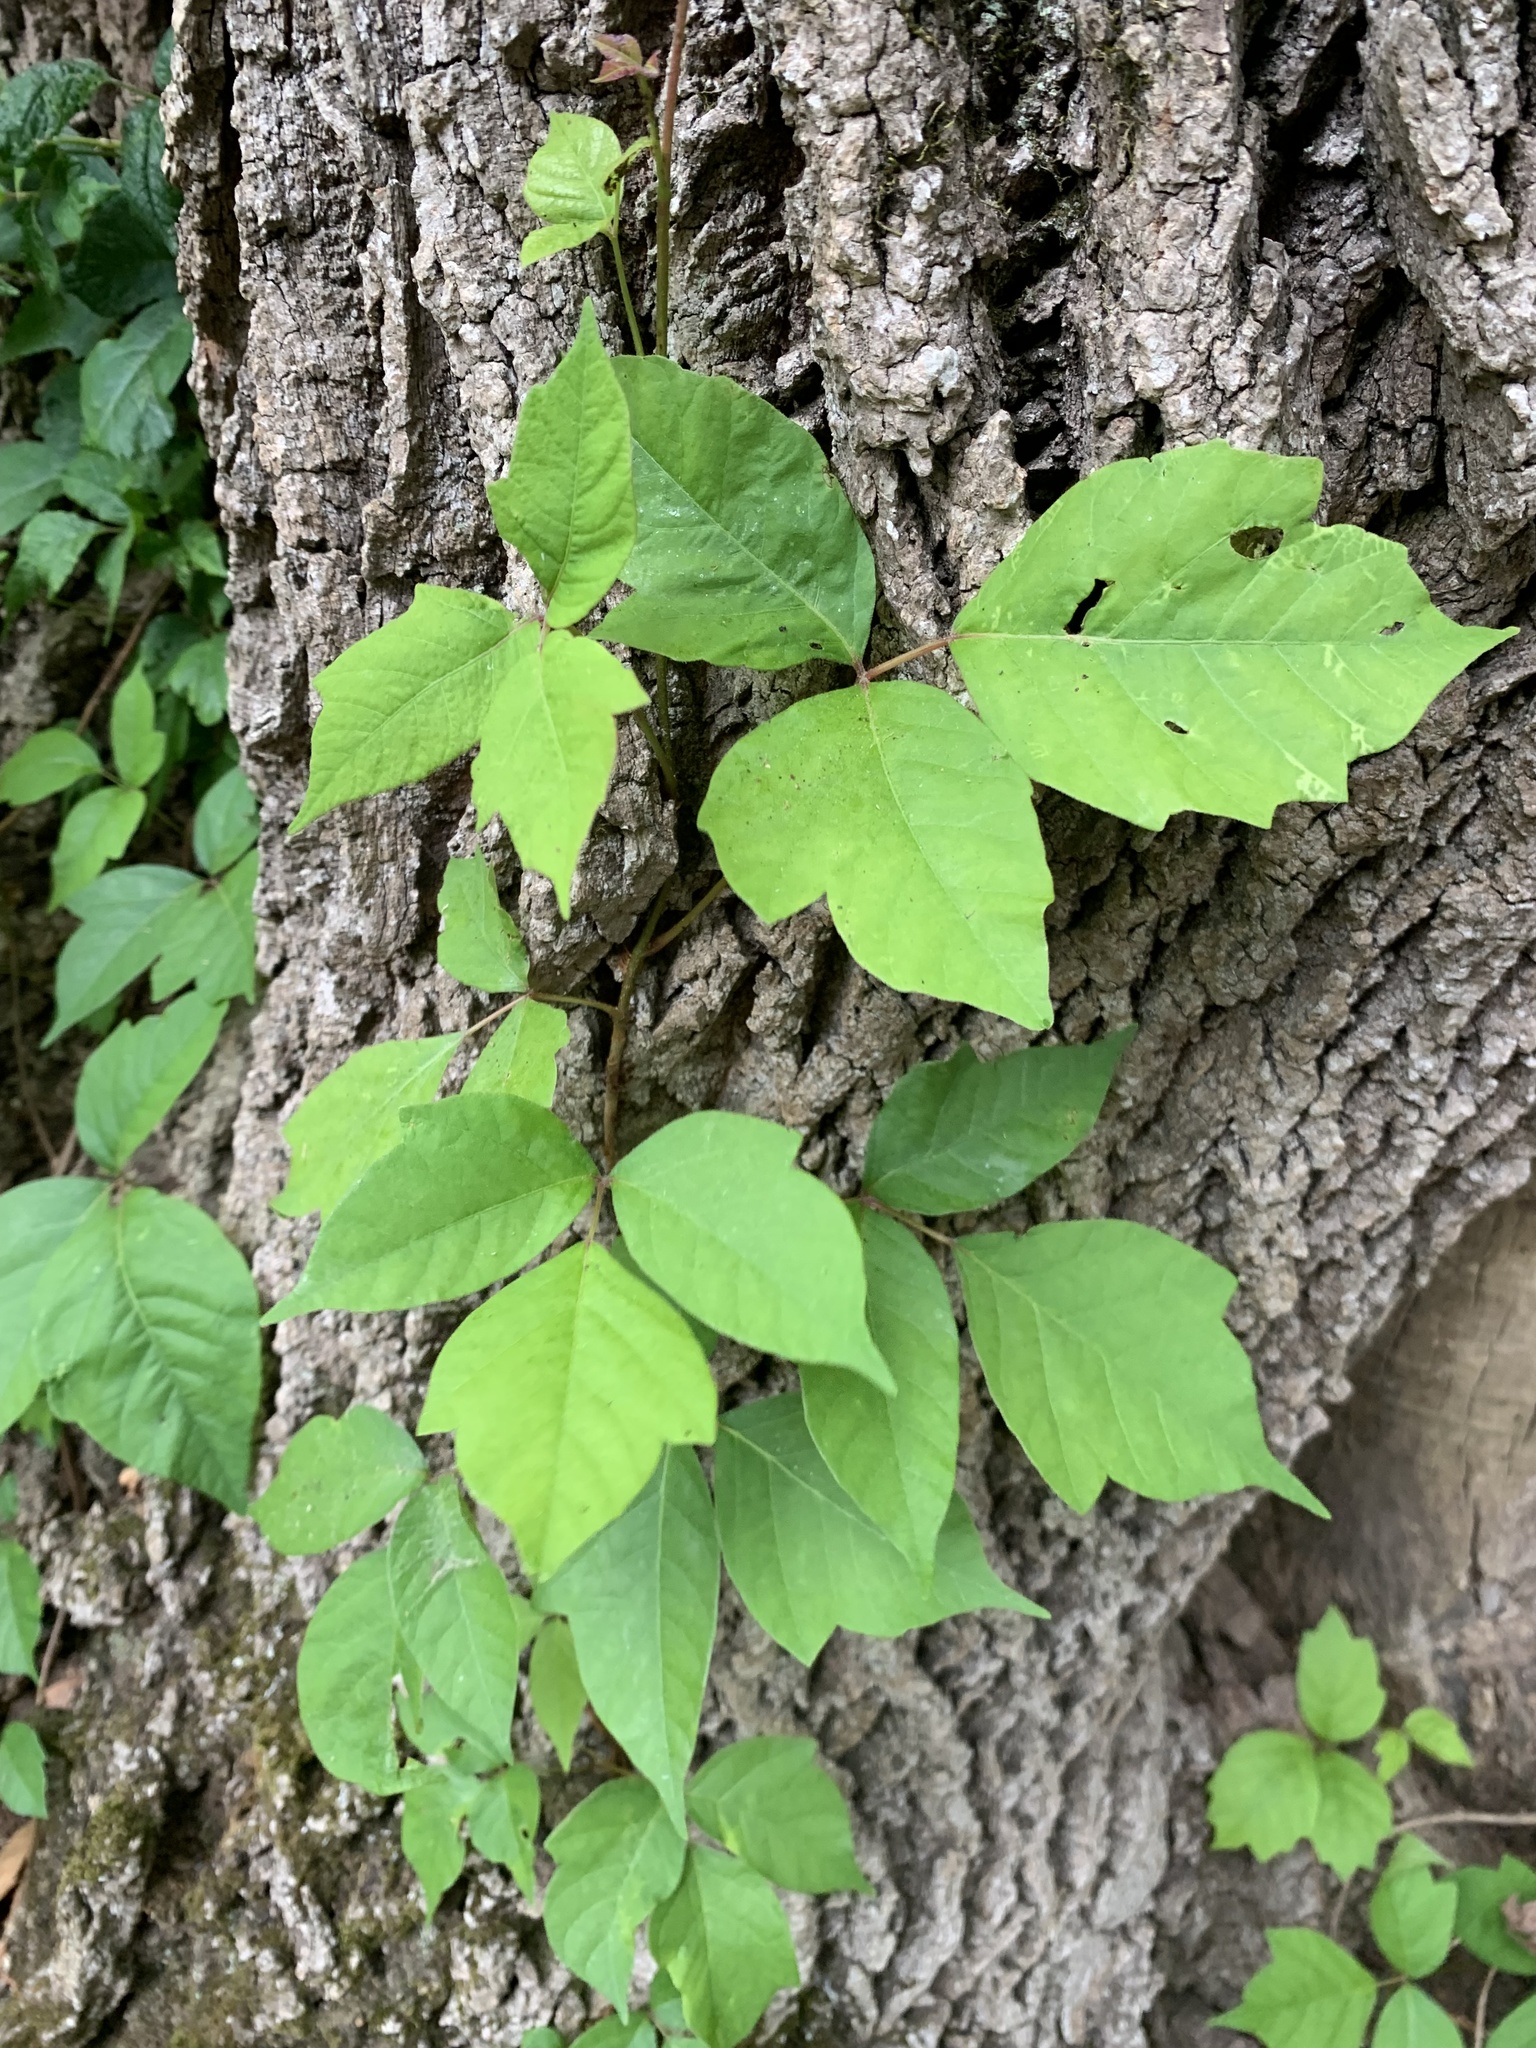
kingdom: Plantae
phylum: Tracheophyta
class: Magnoliopsida
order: Sapindales
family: Anacardiaceae
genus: Toxicodendron
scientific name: Toxicodendron radicans
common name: Poison ivy
